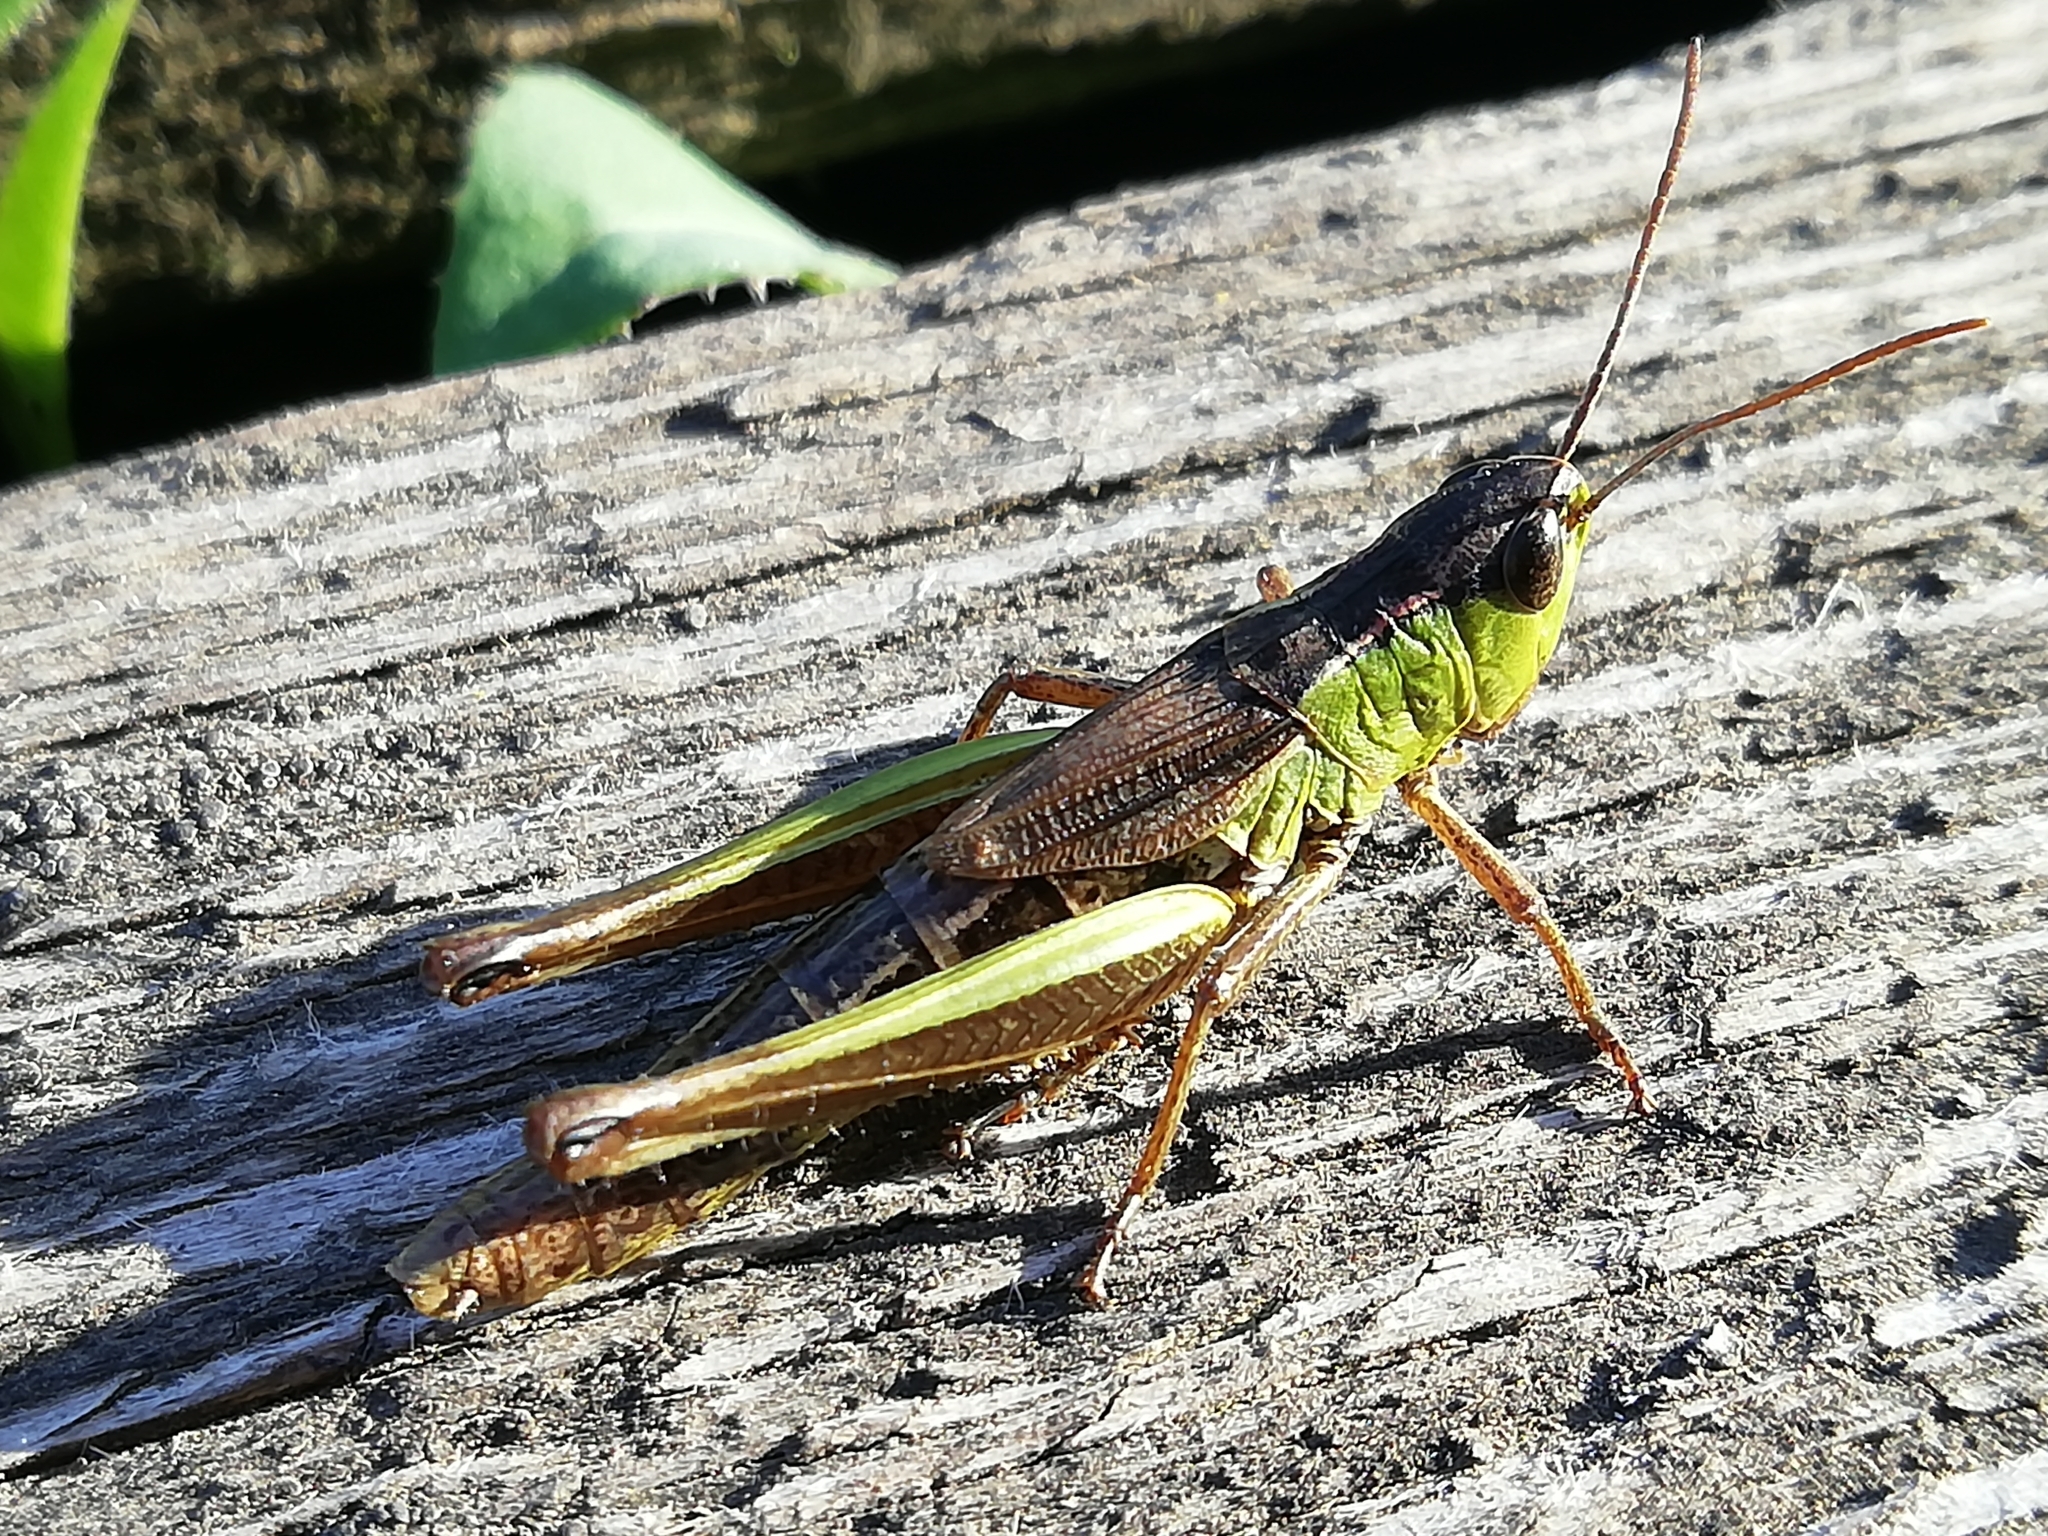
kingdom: Animalia
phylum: Arthropoda
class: Insecta
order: Orthoptera
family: Acrididae
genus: Pseudochorthippus
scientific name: Pseudochorthippus parallelus
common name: Meadow grasshopper
